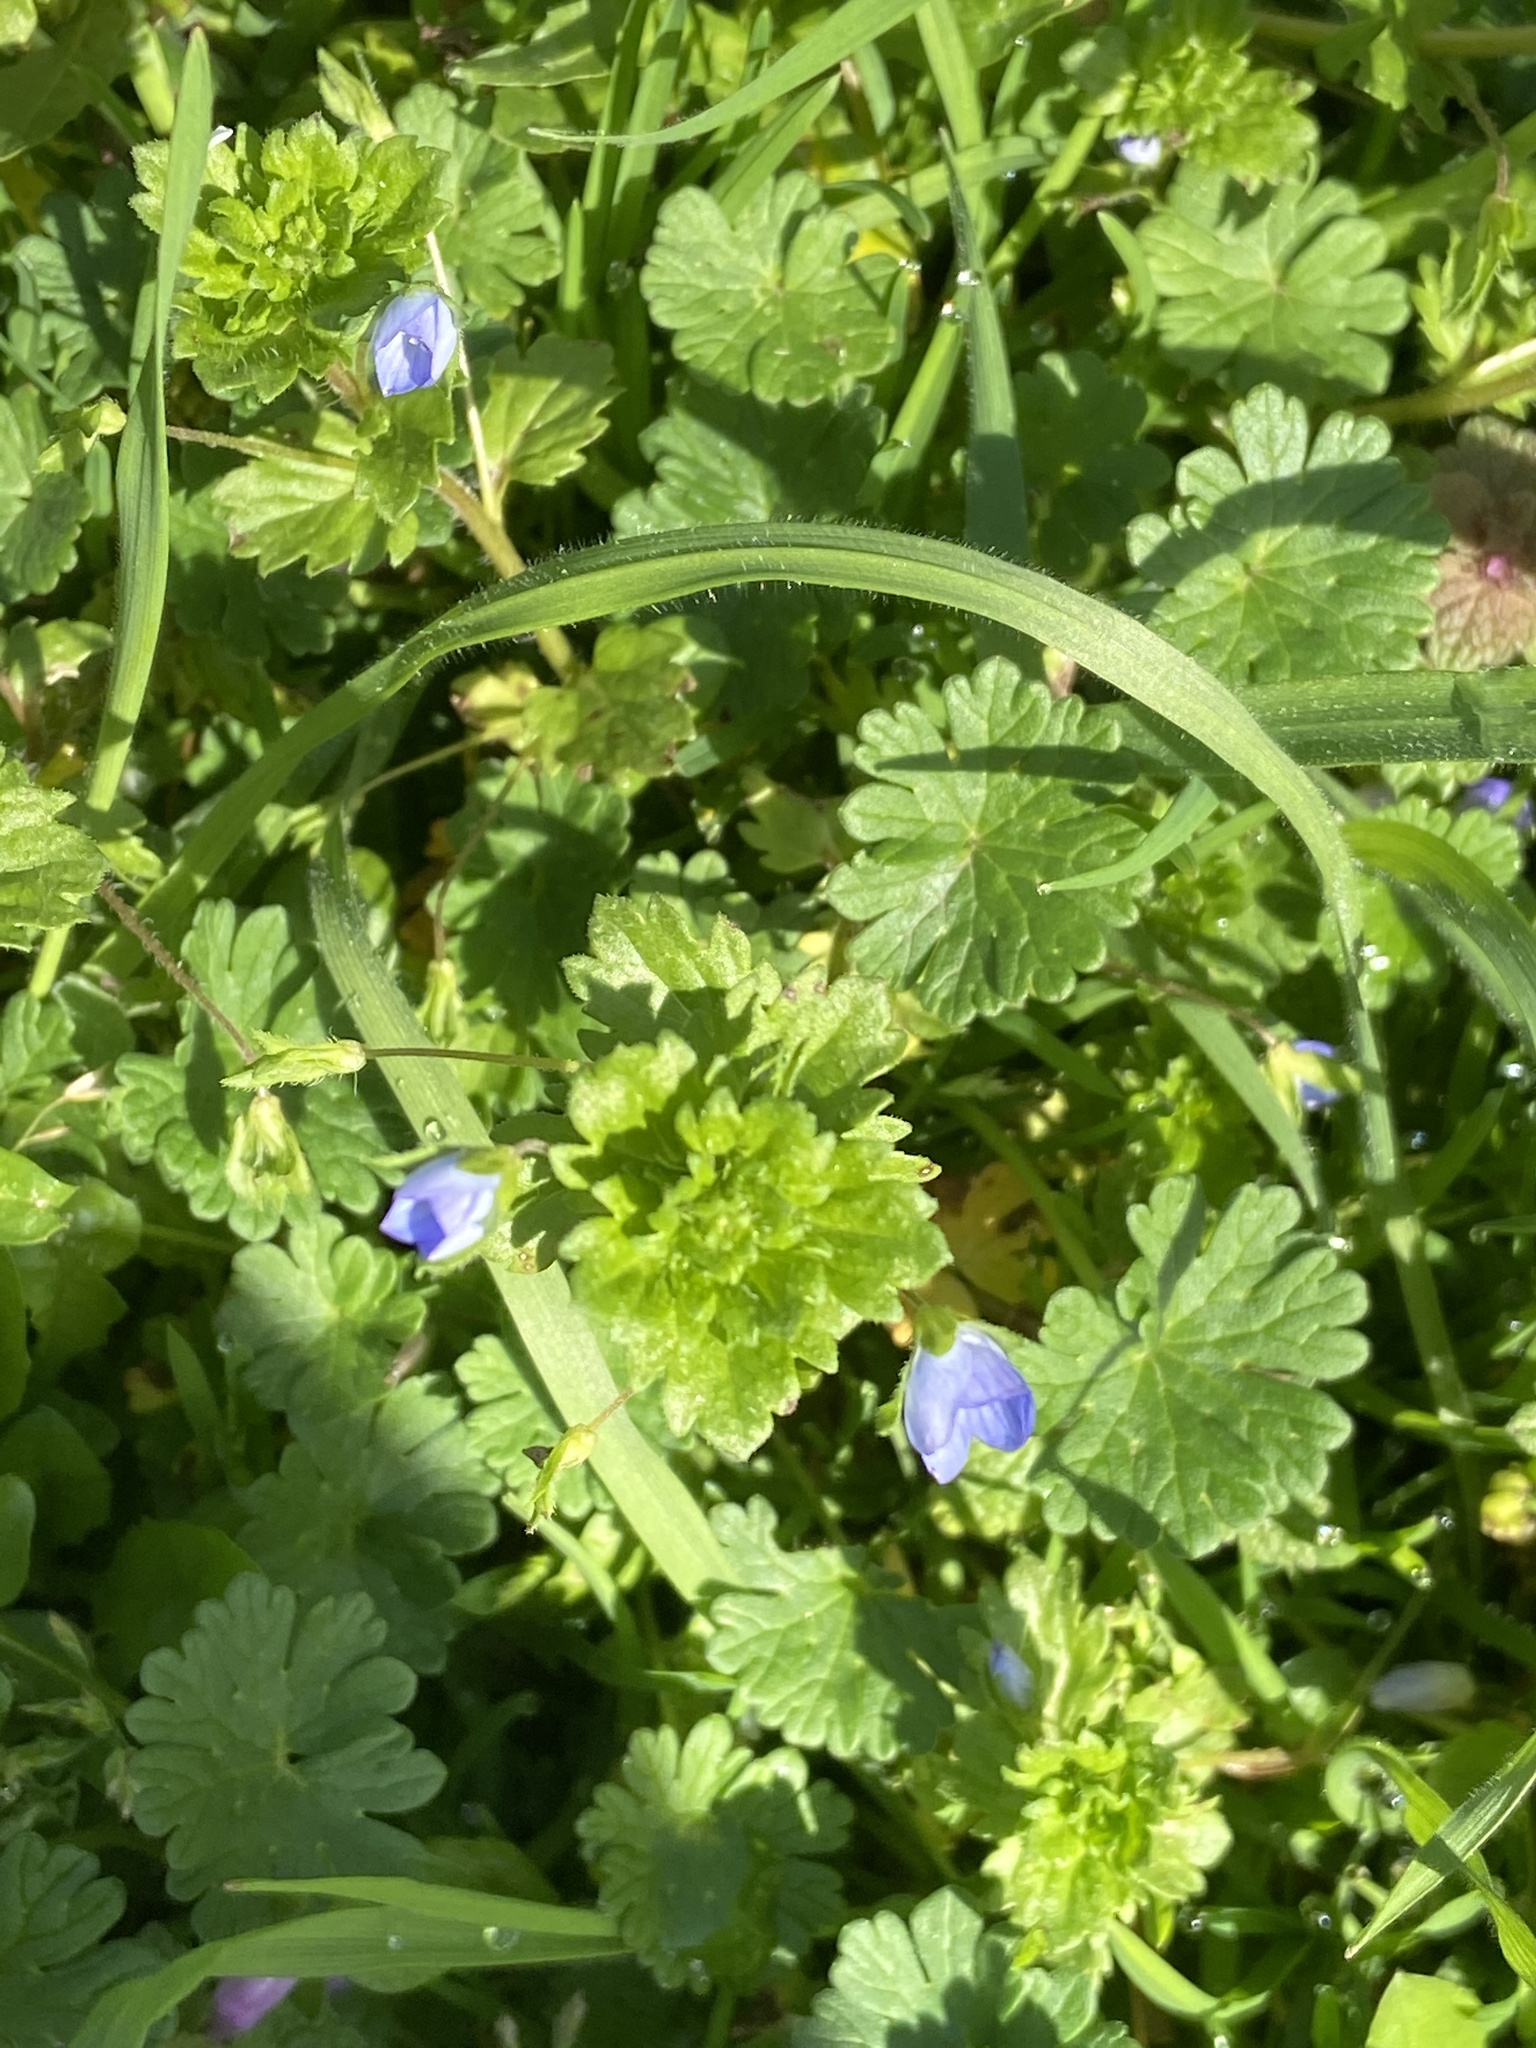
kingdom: Plantae
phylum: Tracheophyta
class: Magnoliopsida
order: Lamiales
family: Plantaginaceae
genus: Veronica
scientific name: Veronica persica
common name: Common field-speedwell
